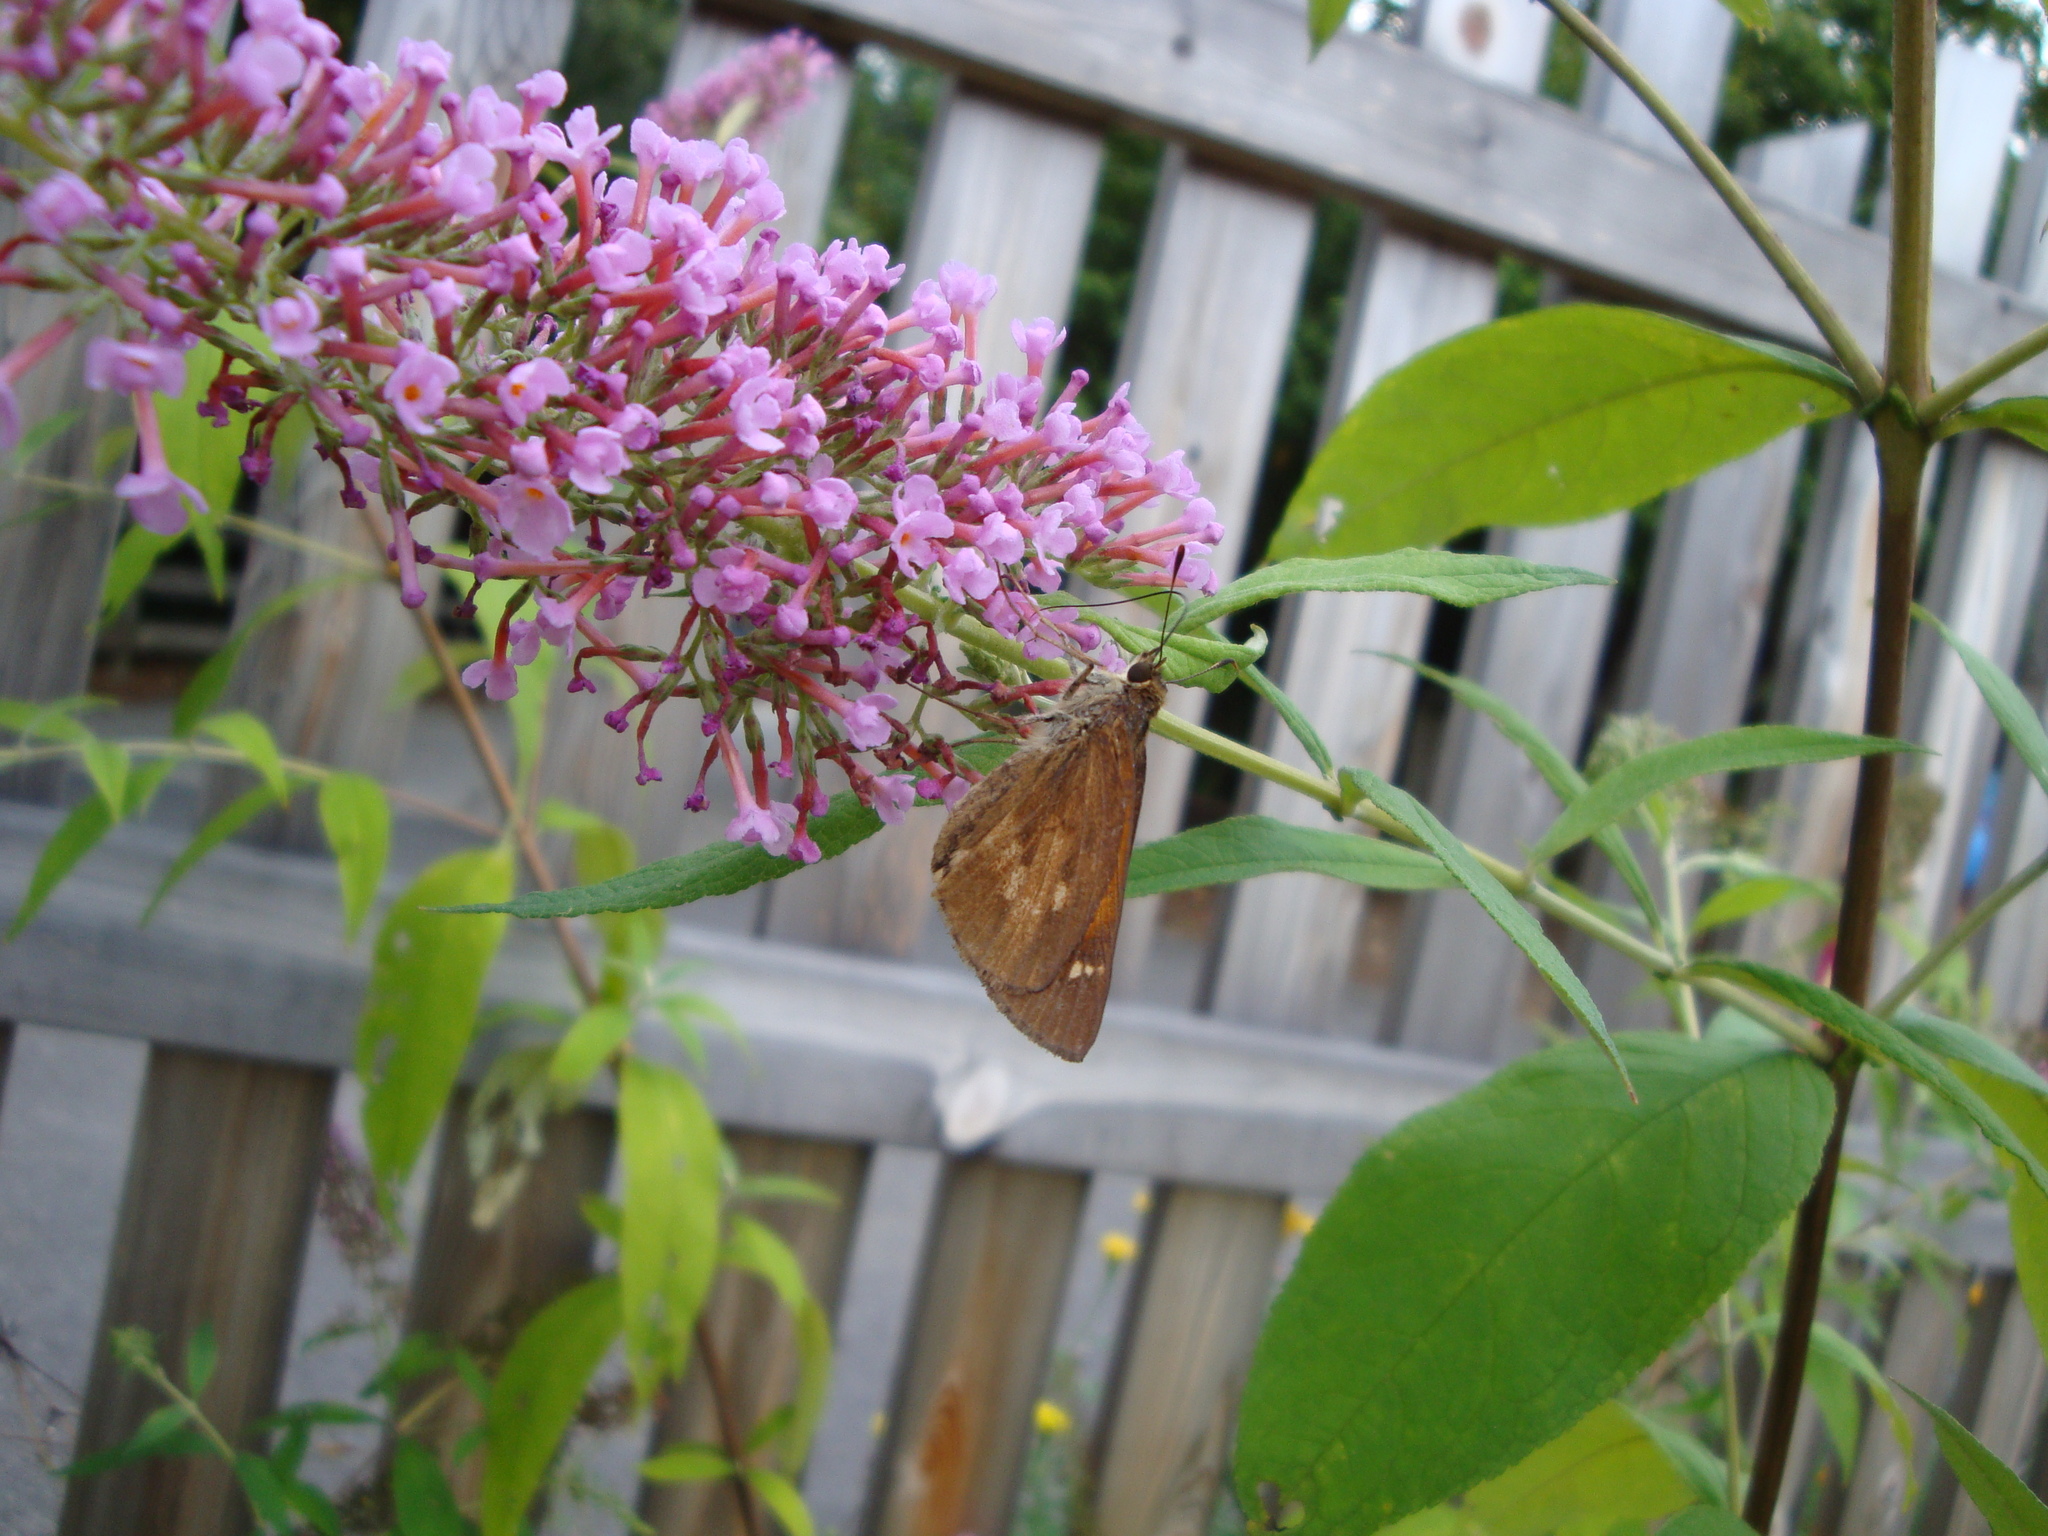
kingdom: Animalia
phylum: Arthropoda
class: Insecta
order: Lepidoptera
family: Hesperiidae
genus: Poanes
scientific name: Poanes viator
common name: Broad-winged skipper
